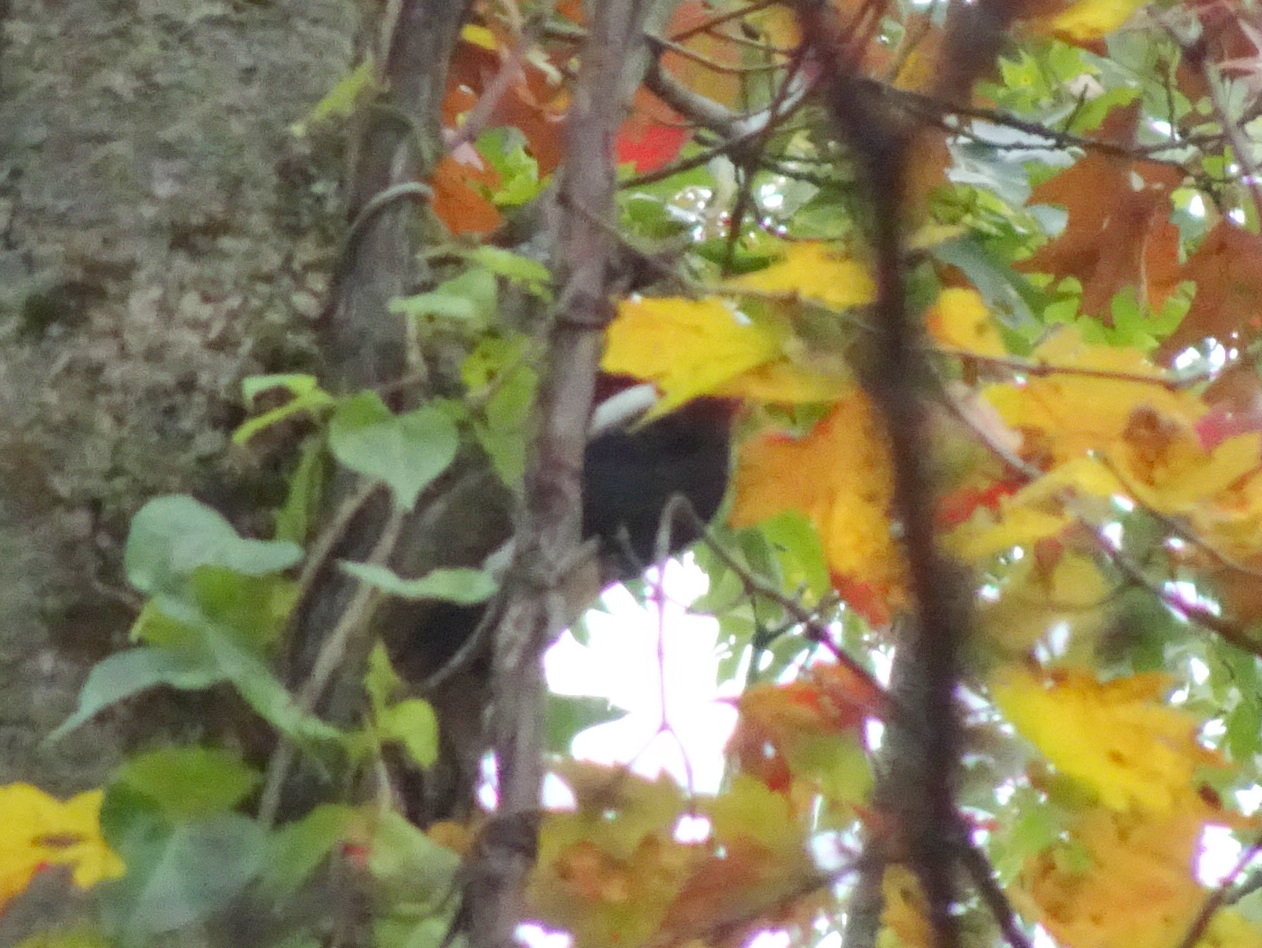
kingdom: Animalia
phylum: Chordata
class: Aves
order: Piciformes
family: Picidae
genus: Melanerpes
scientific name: Melanerpes erythrocephalus
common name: Red-headed woodpecker
